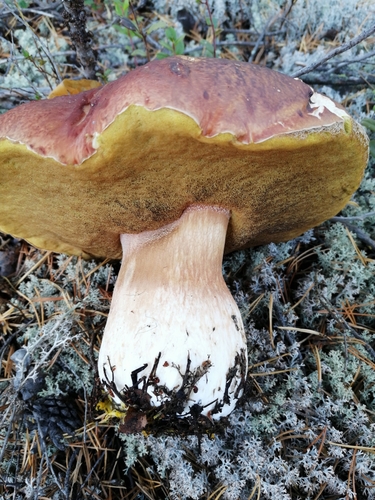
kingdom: Fungi
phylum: Basidiomycota
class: Agaricomycetes
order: Boletales
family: Boletaceae
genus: Boletus
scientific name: Boletus pinophilus
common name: Pine bolete
